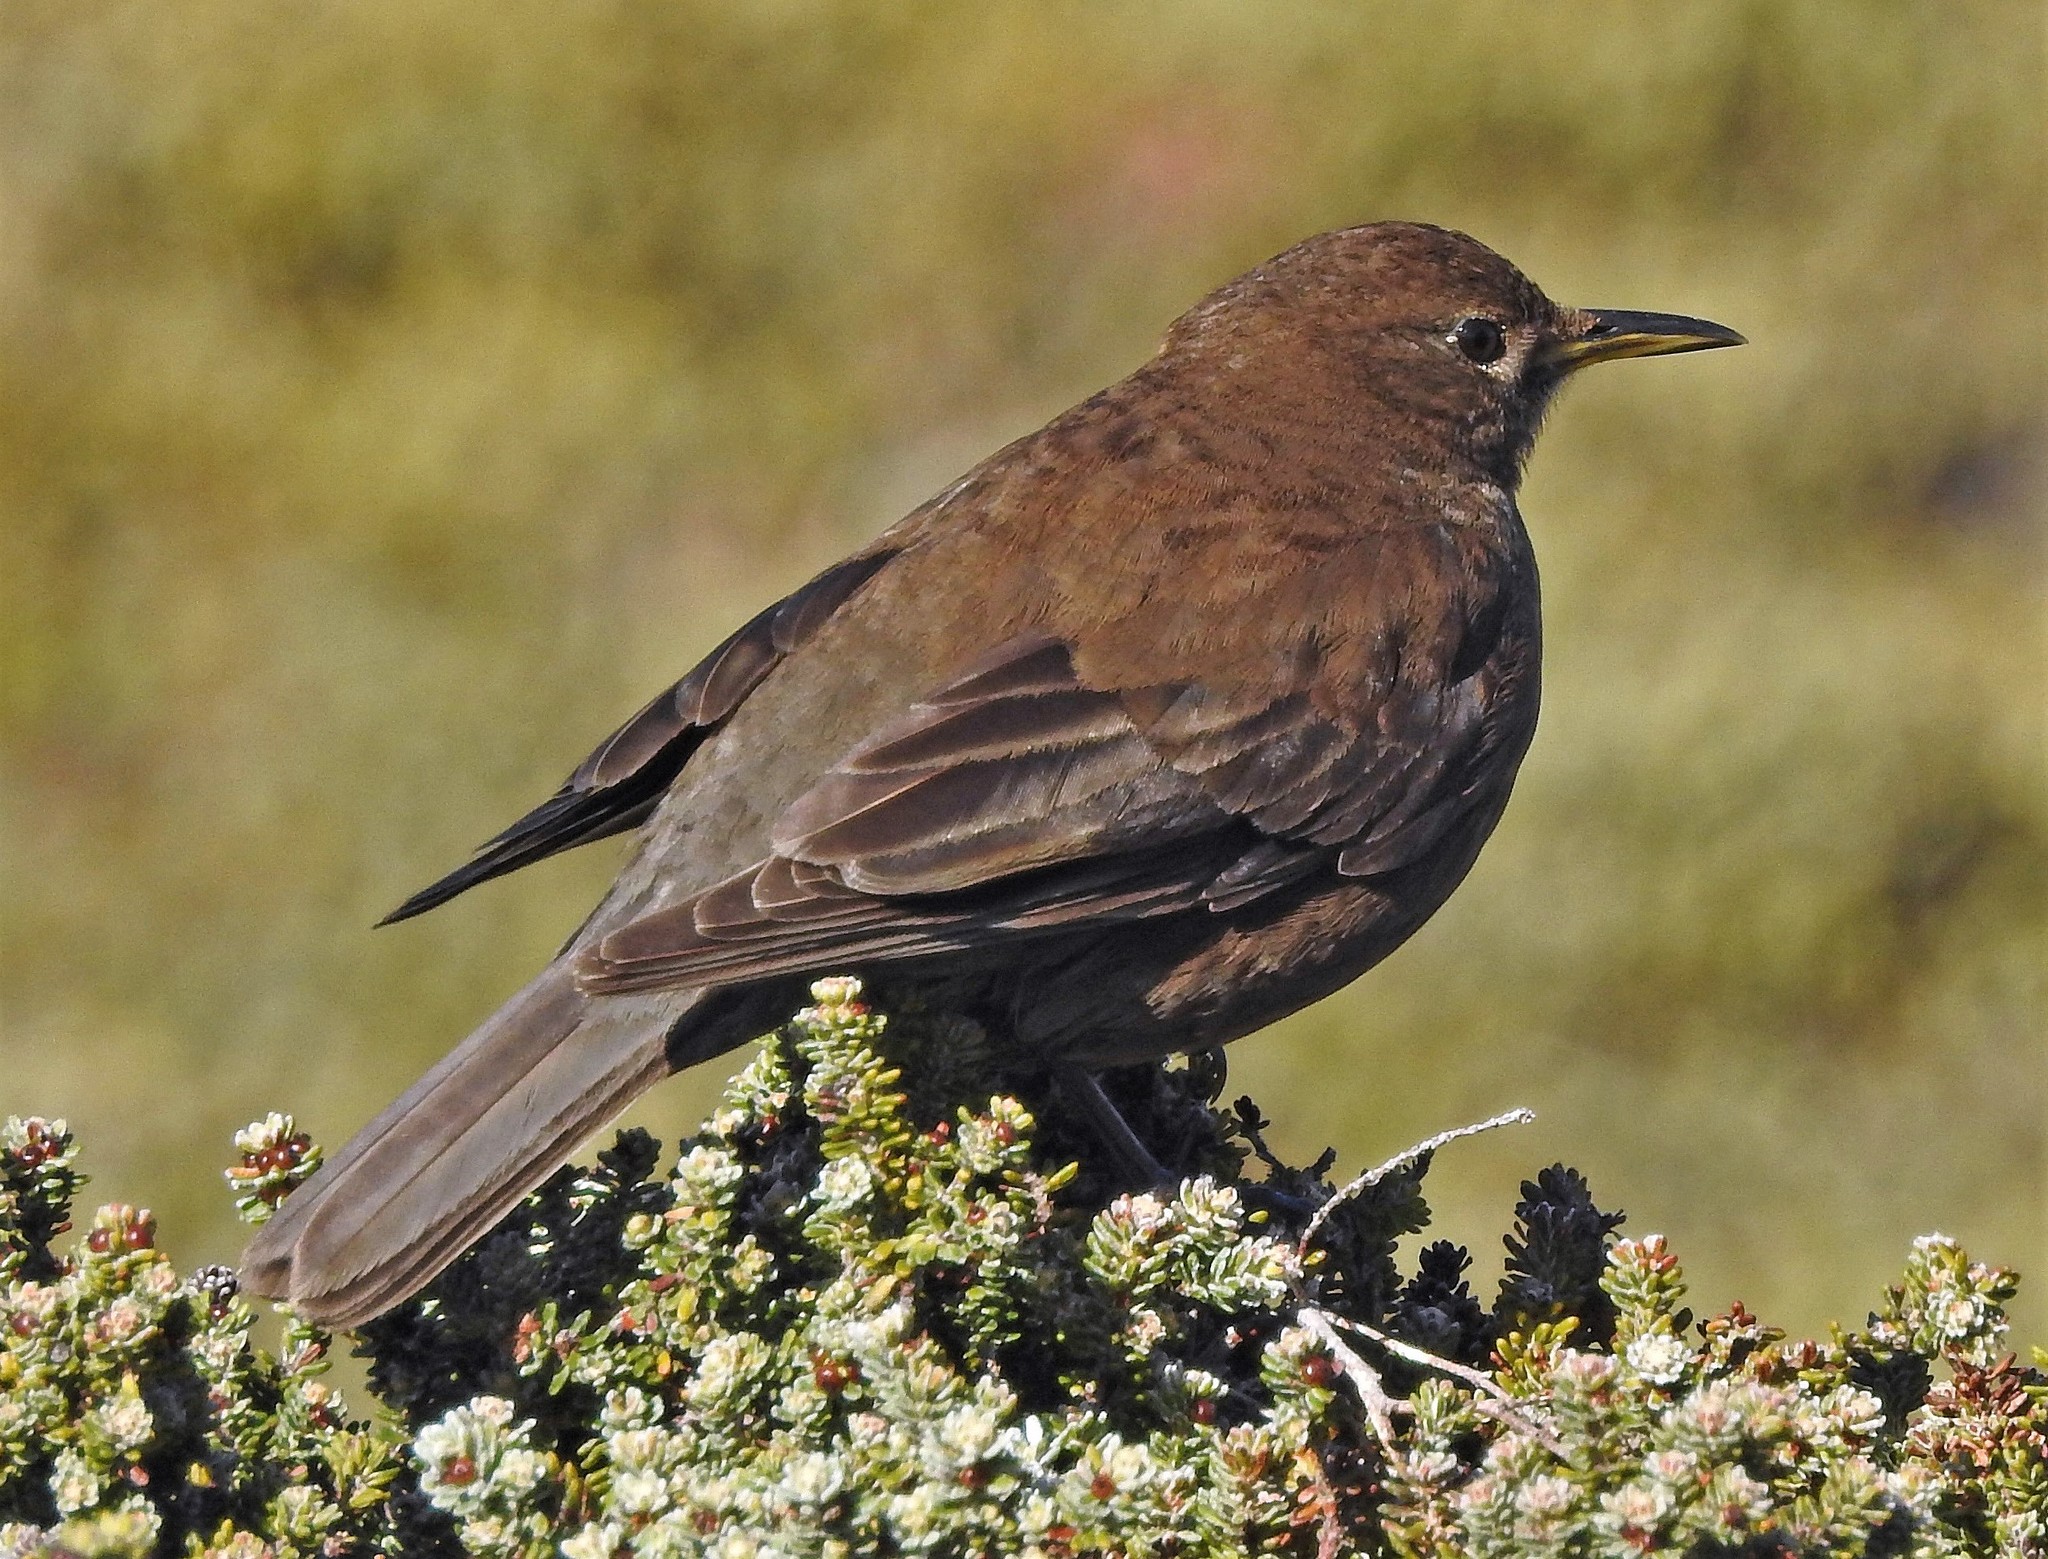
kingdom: Animalia
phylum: Chordata
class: Aves
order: Passeriformes
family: Furnariidae
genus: Cinclodes
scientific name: Cinclodes antarcticus
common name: Blackish cinclodes
